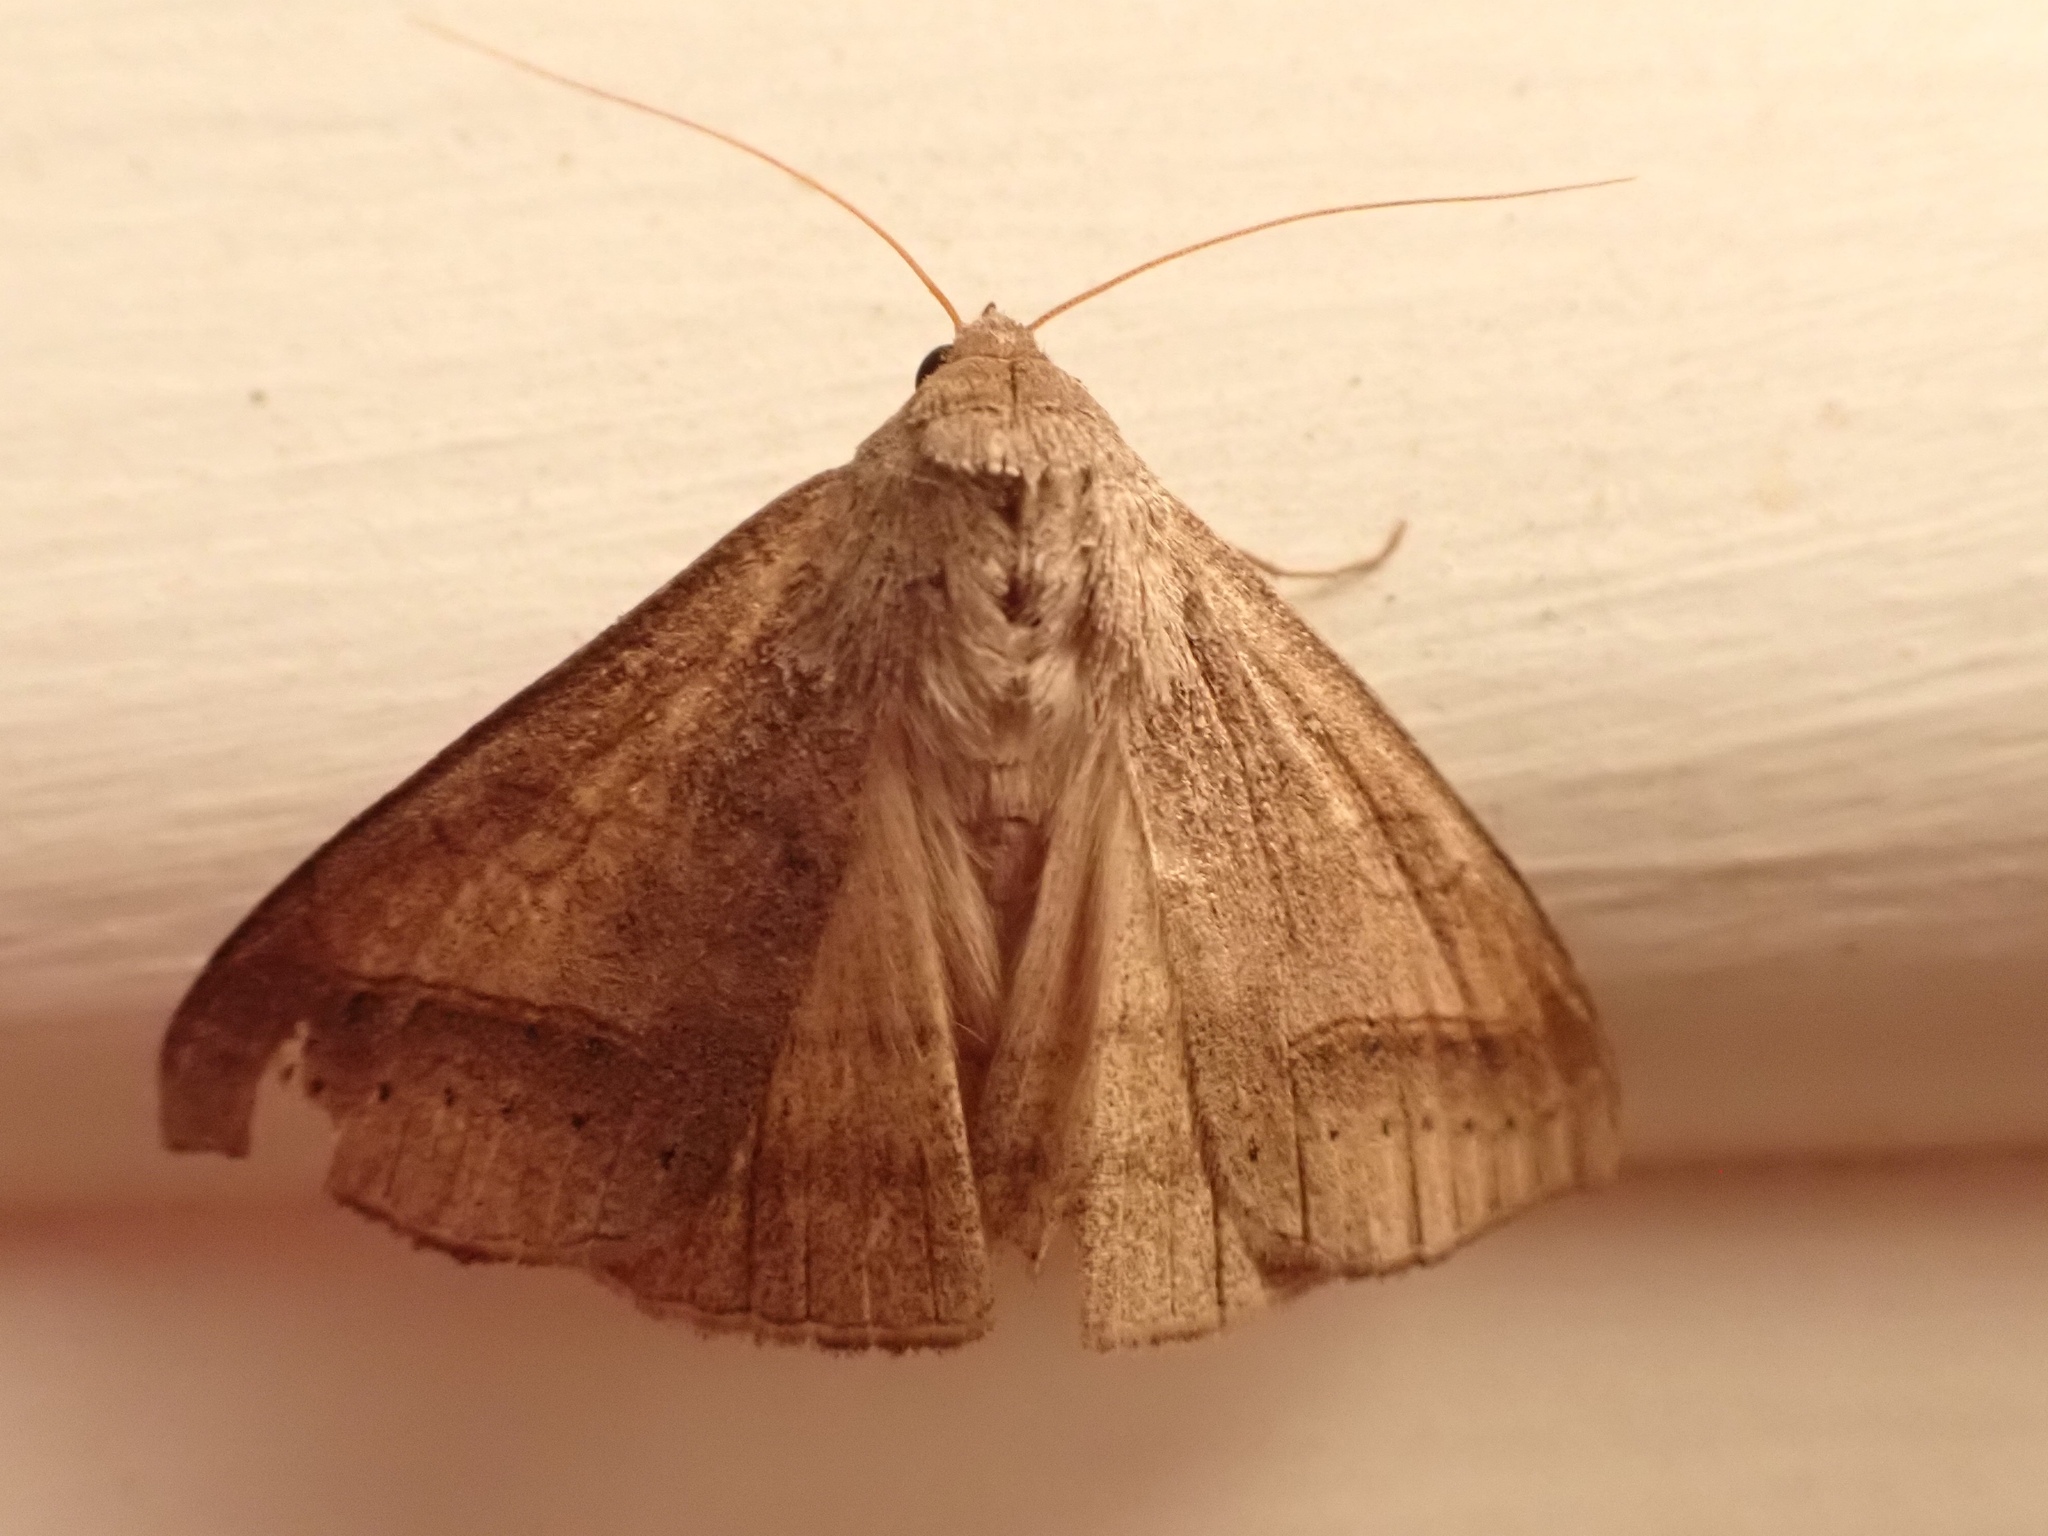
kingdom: Animalia
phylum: Arthropoda
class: Insecta
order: Lepidoptera
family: Erebidae
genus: Mocis
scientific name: Mocis marcida
